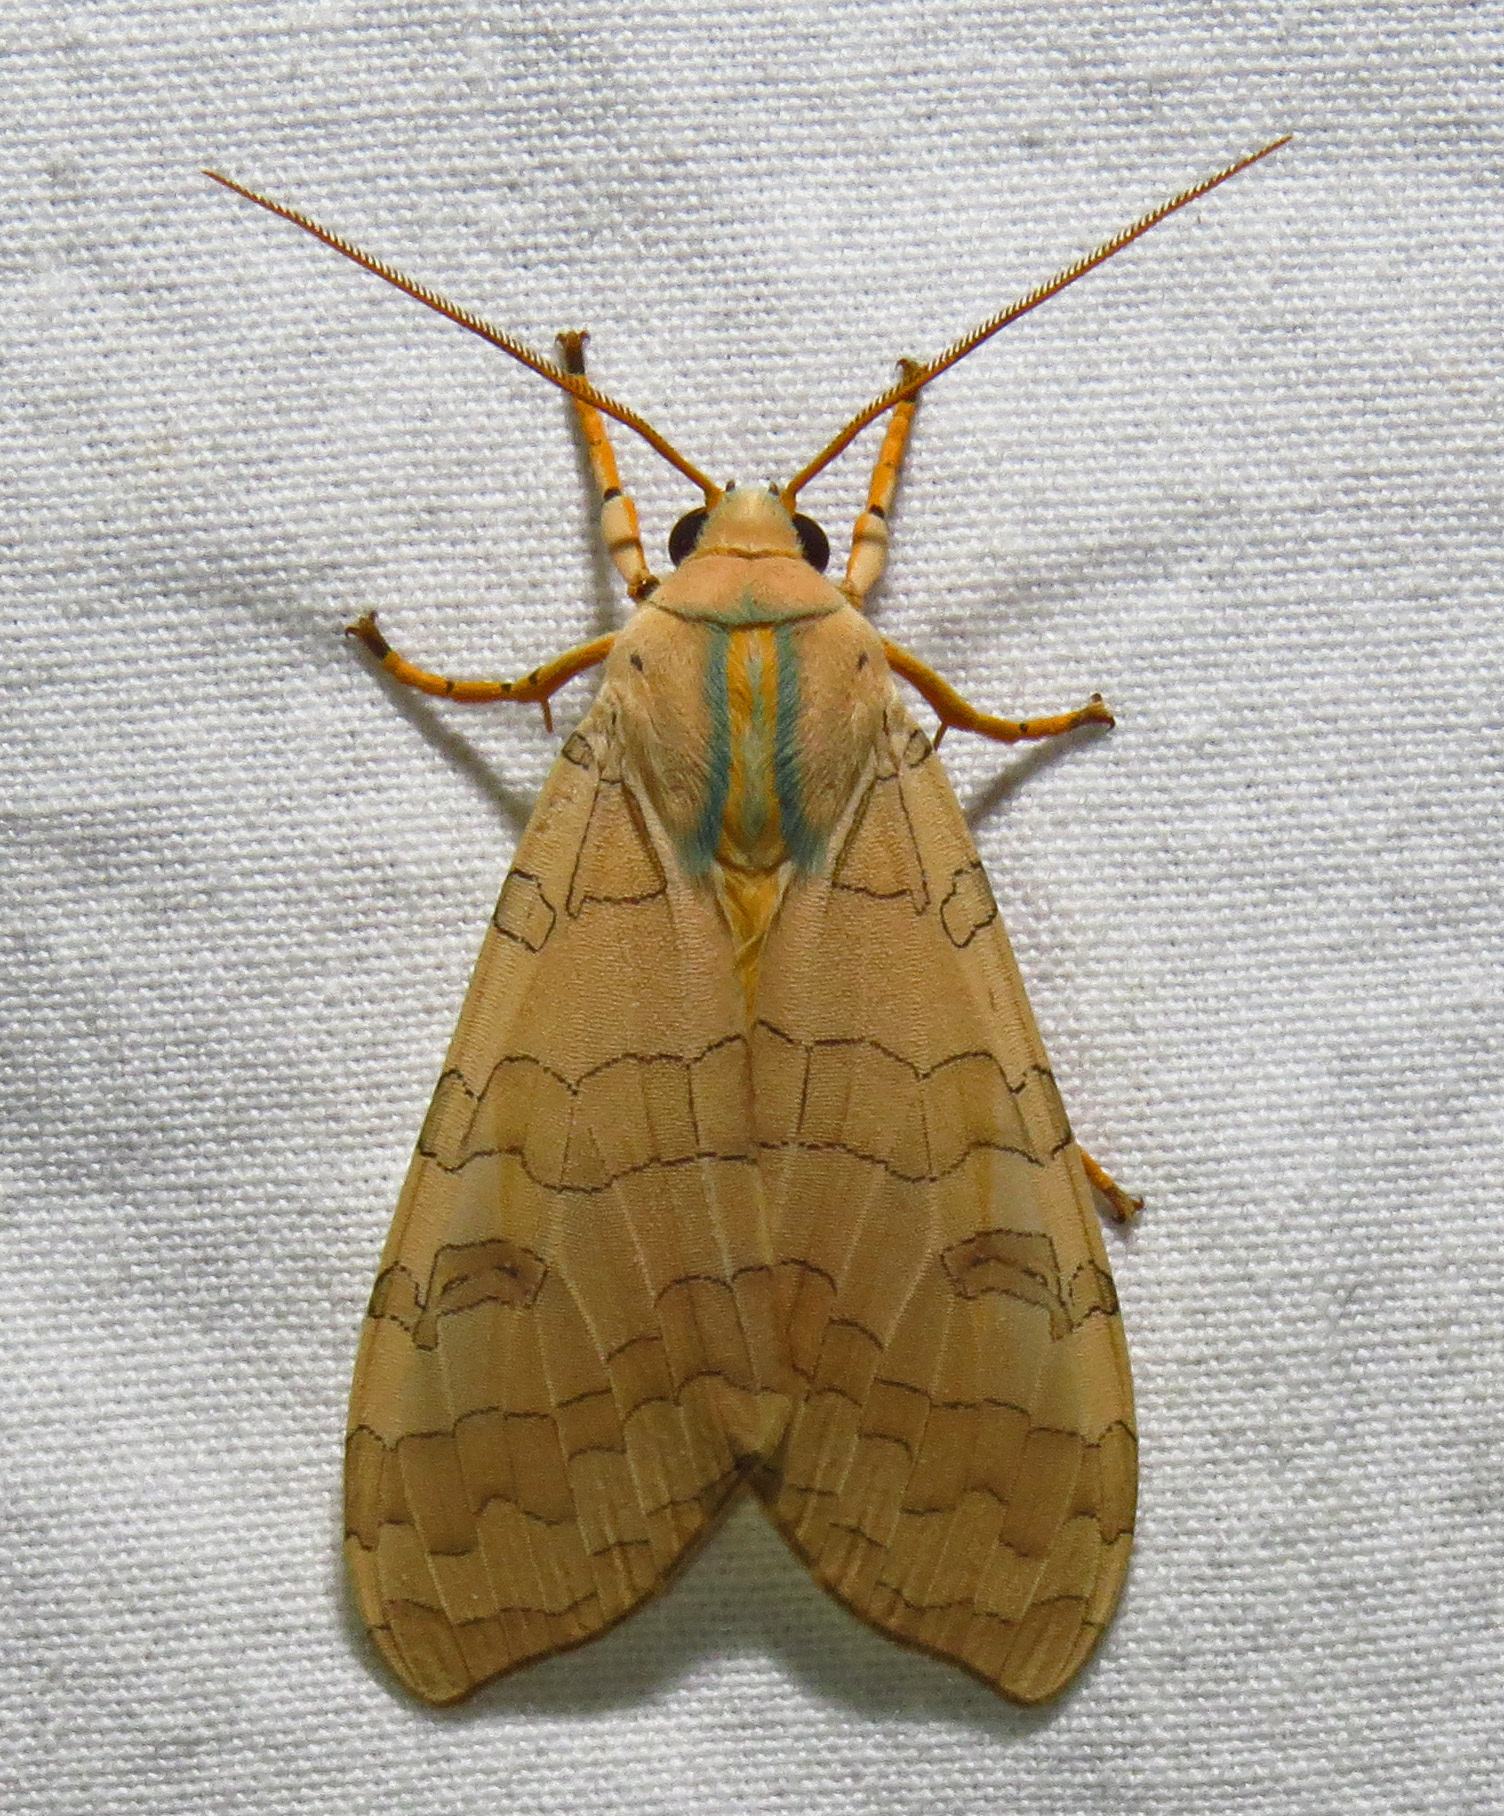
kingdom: Animalia
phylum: Arthropoda
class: Insecta
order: Lepidoptera
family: Erebidae
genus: Halysidota
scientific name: Halysidota
